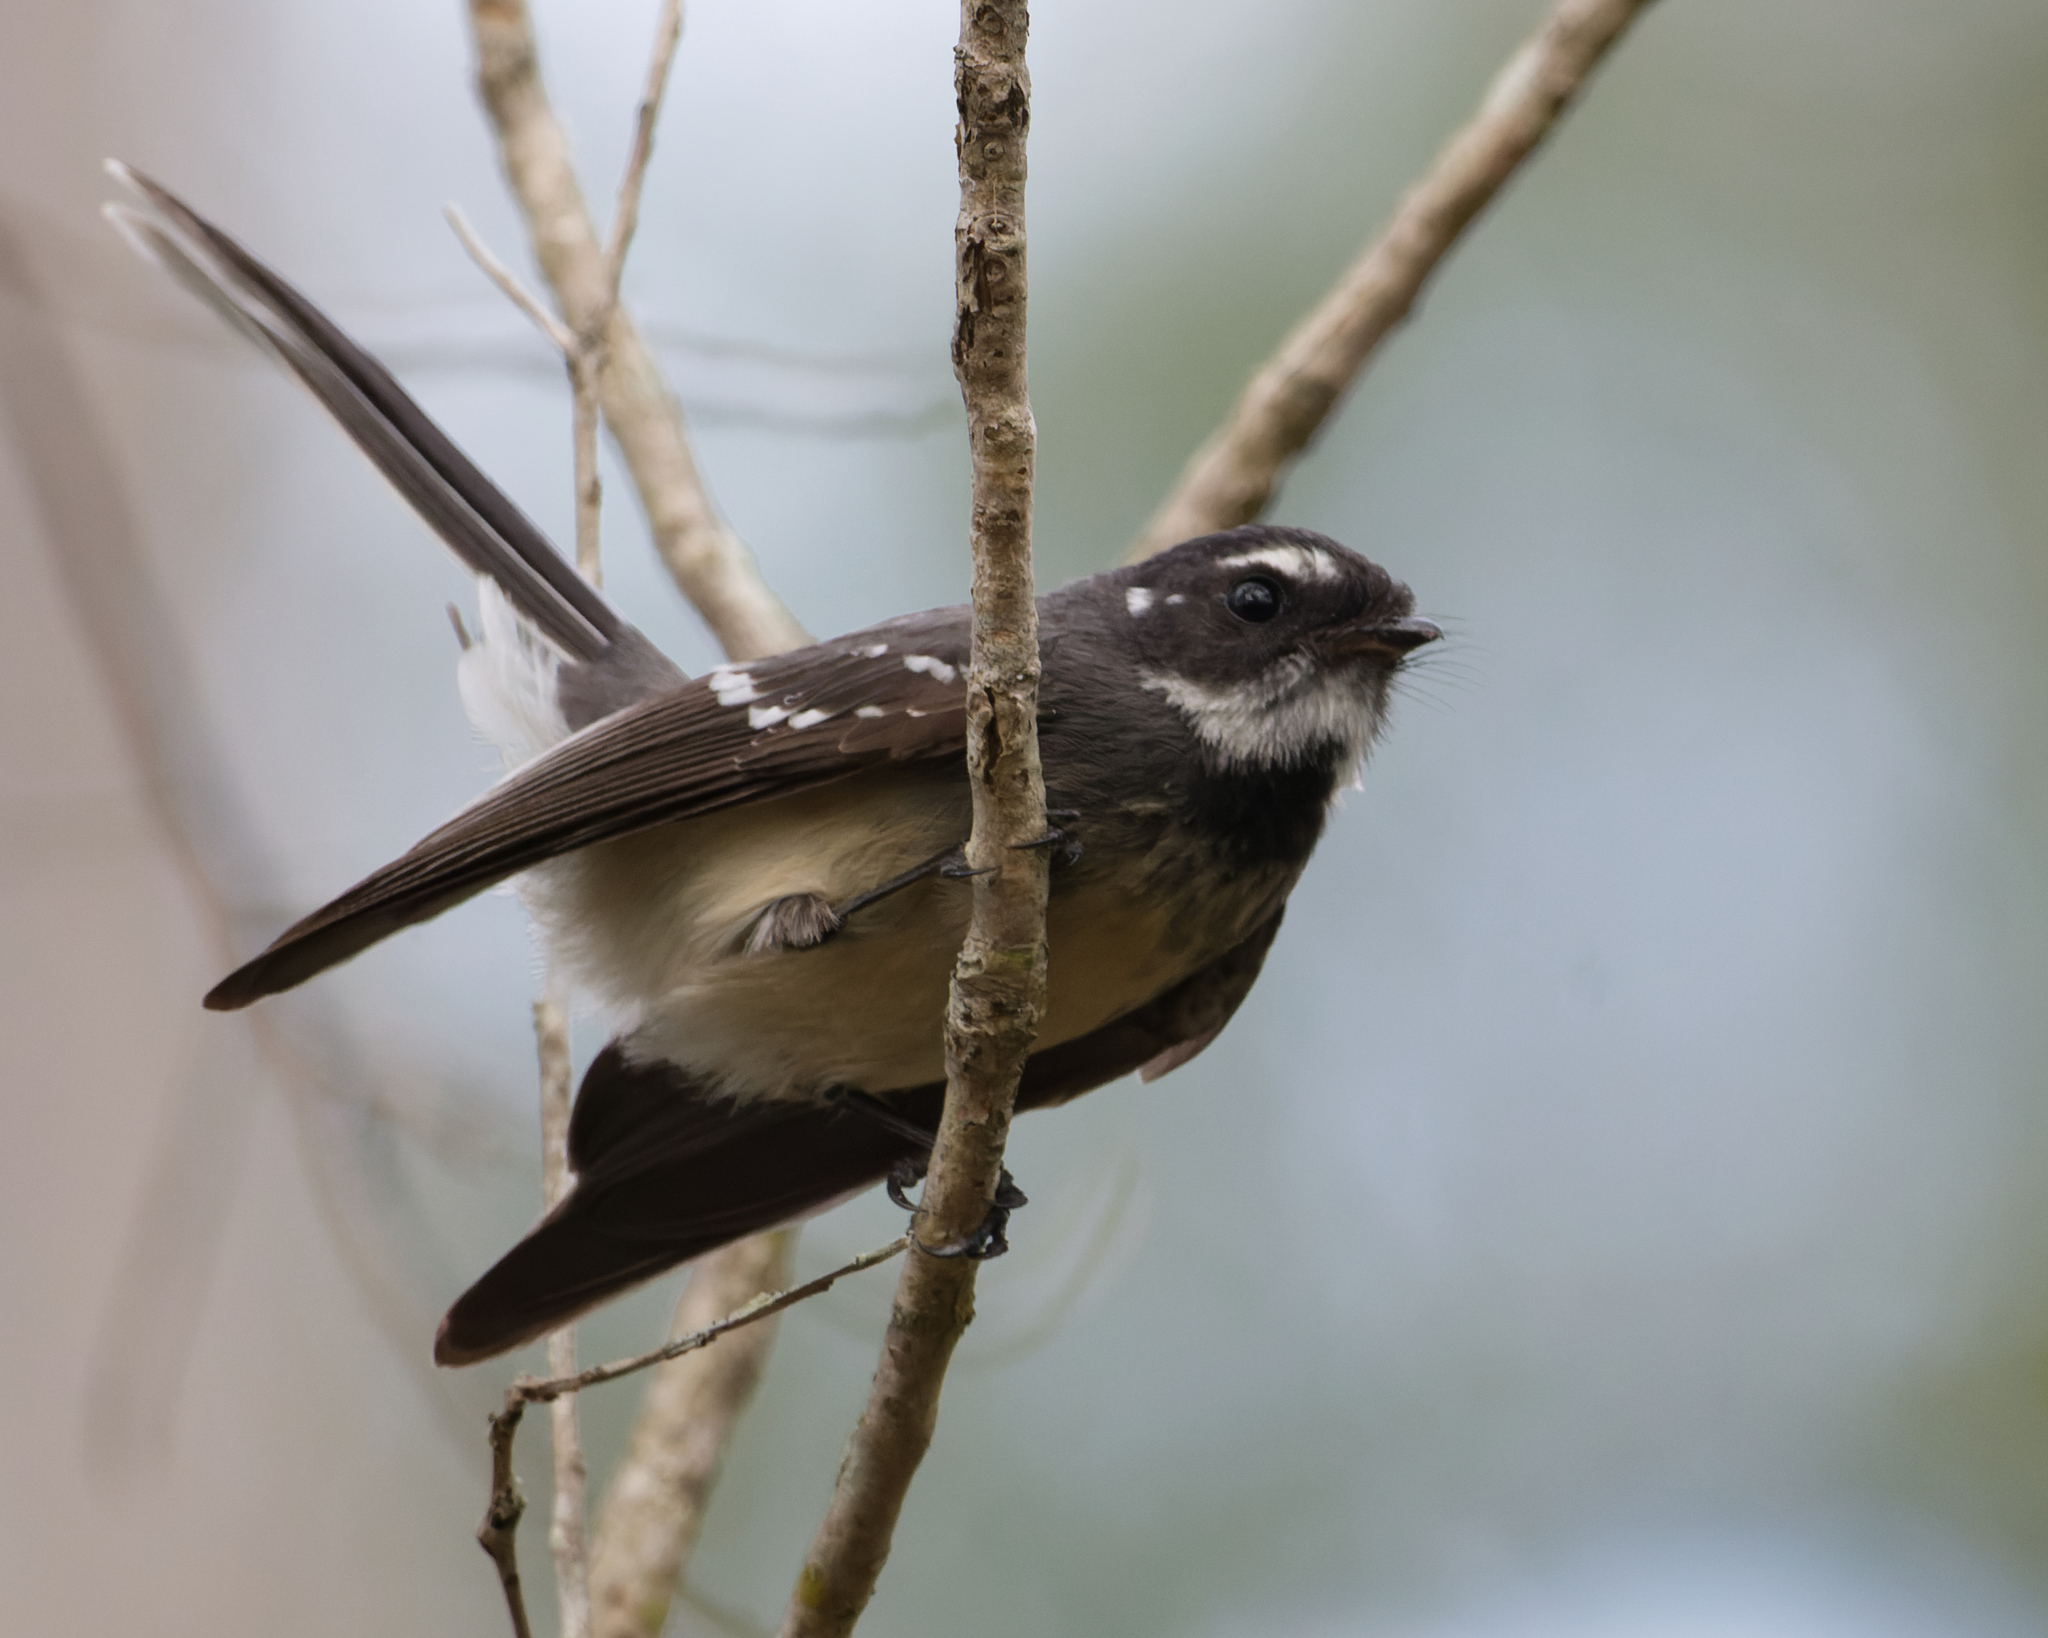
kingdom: Animalia
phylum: Chordata
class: Aves
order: Passeriformes
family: Rhipiduridae
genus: Rhipidura
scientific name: Rhipidura albiscapa
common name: Grey fantail
